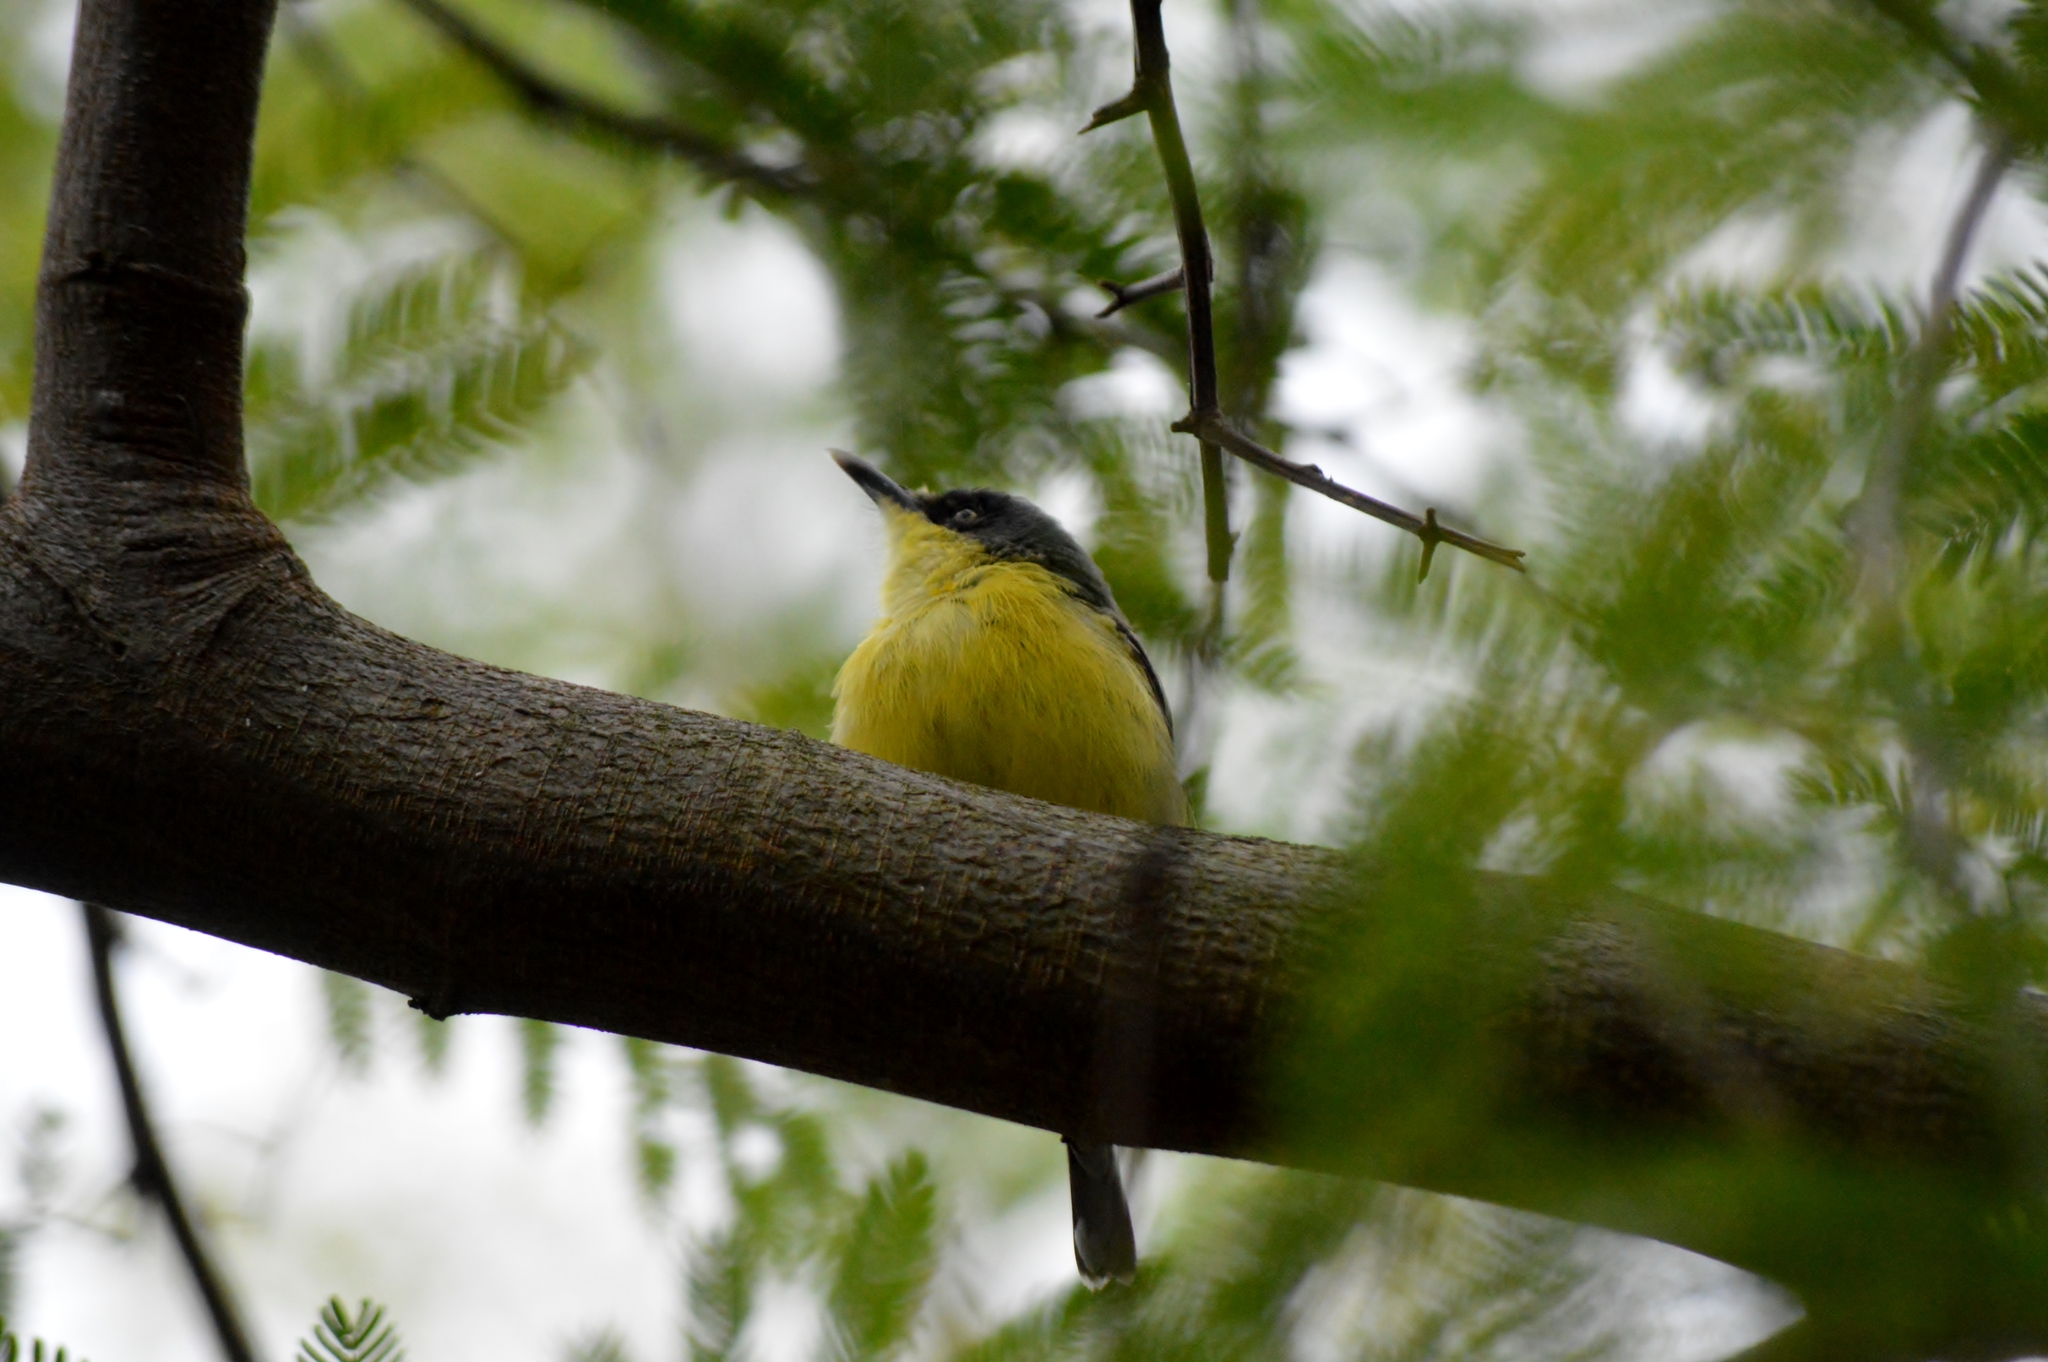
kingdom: Animalia
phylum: Chordata
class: Aves
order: Passeriformes
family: Tyrannidae
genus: Todirostrum
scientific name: Todirostrum cinereum
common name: Common tody-flycatcher
